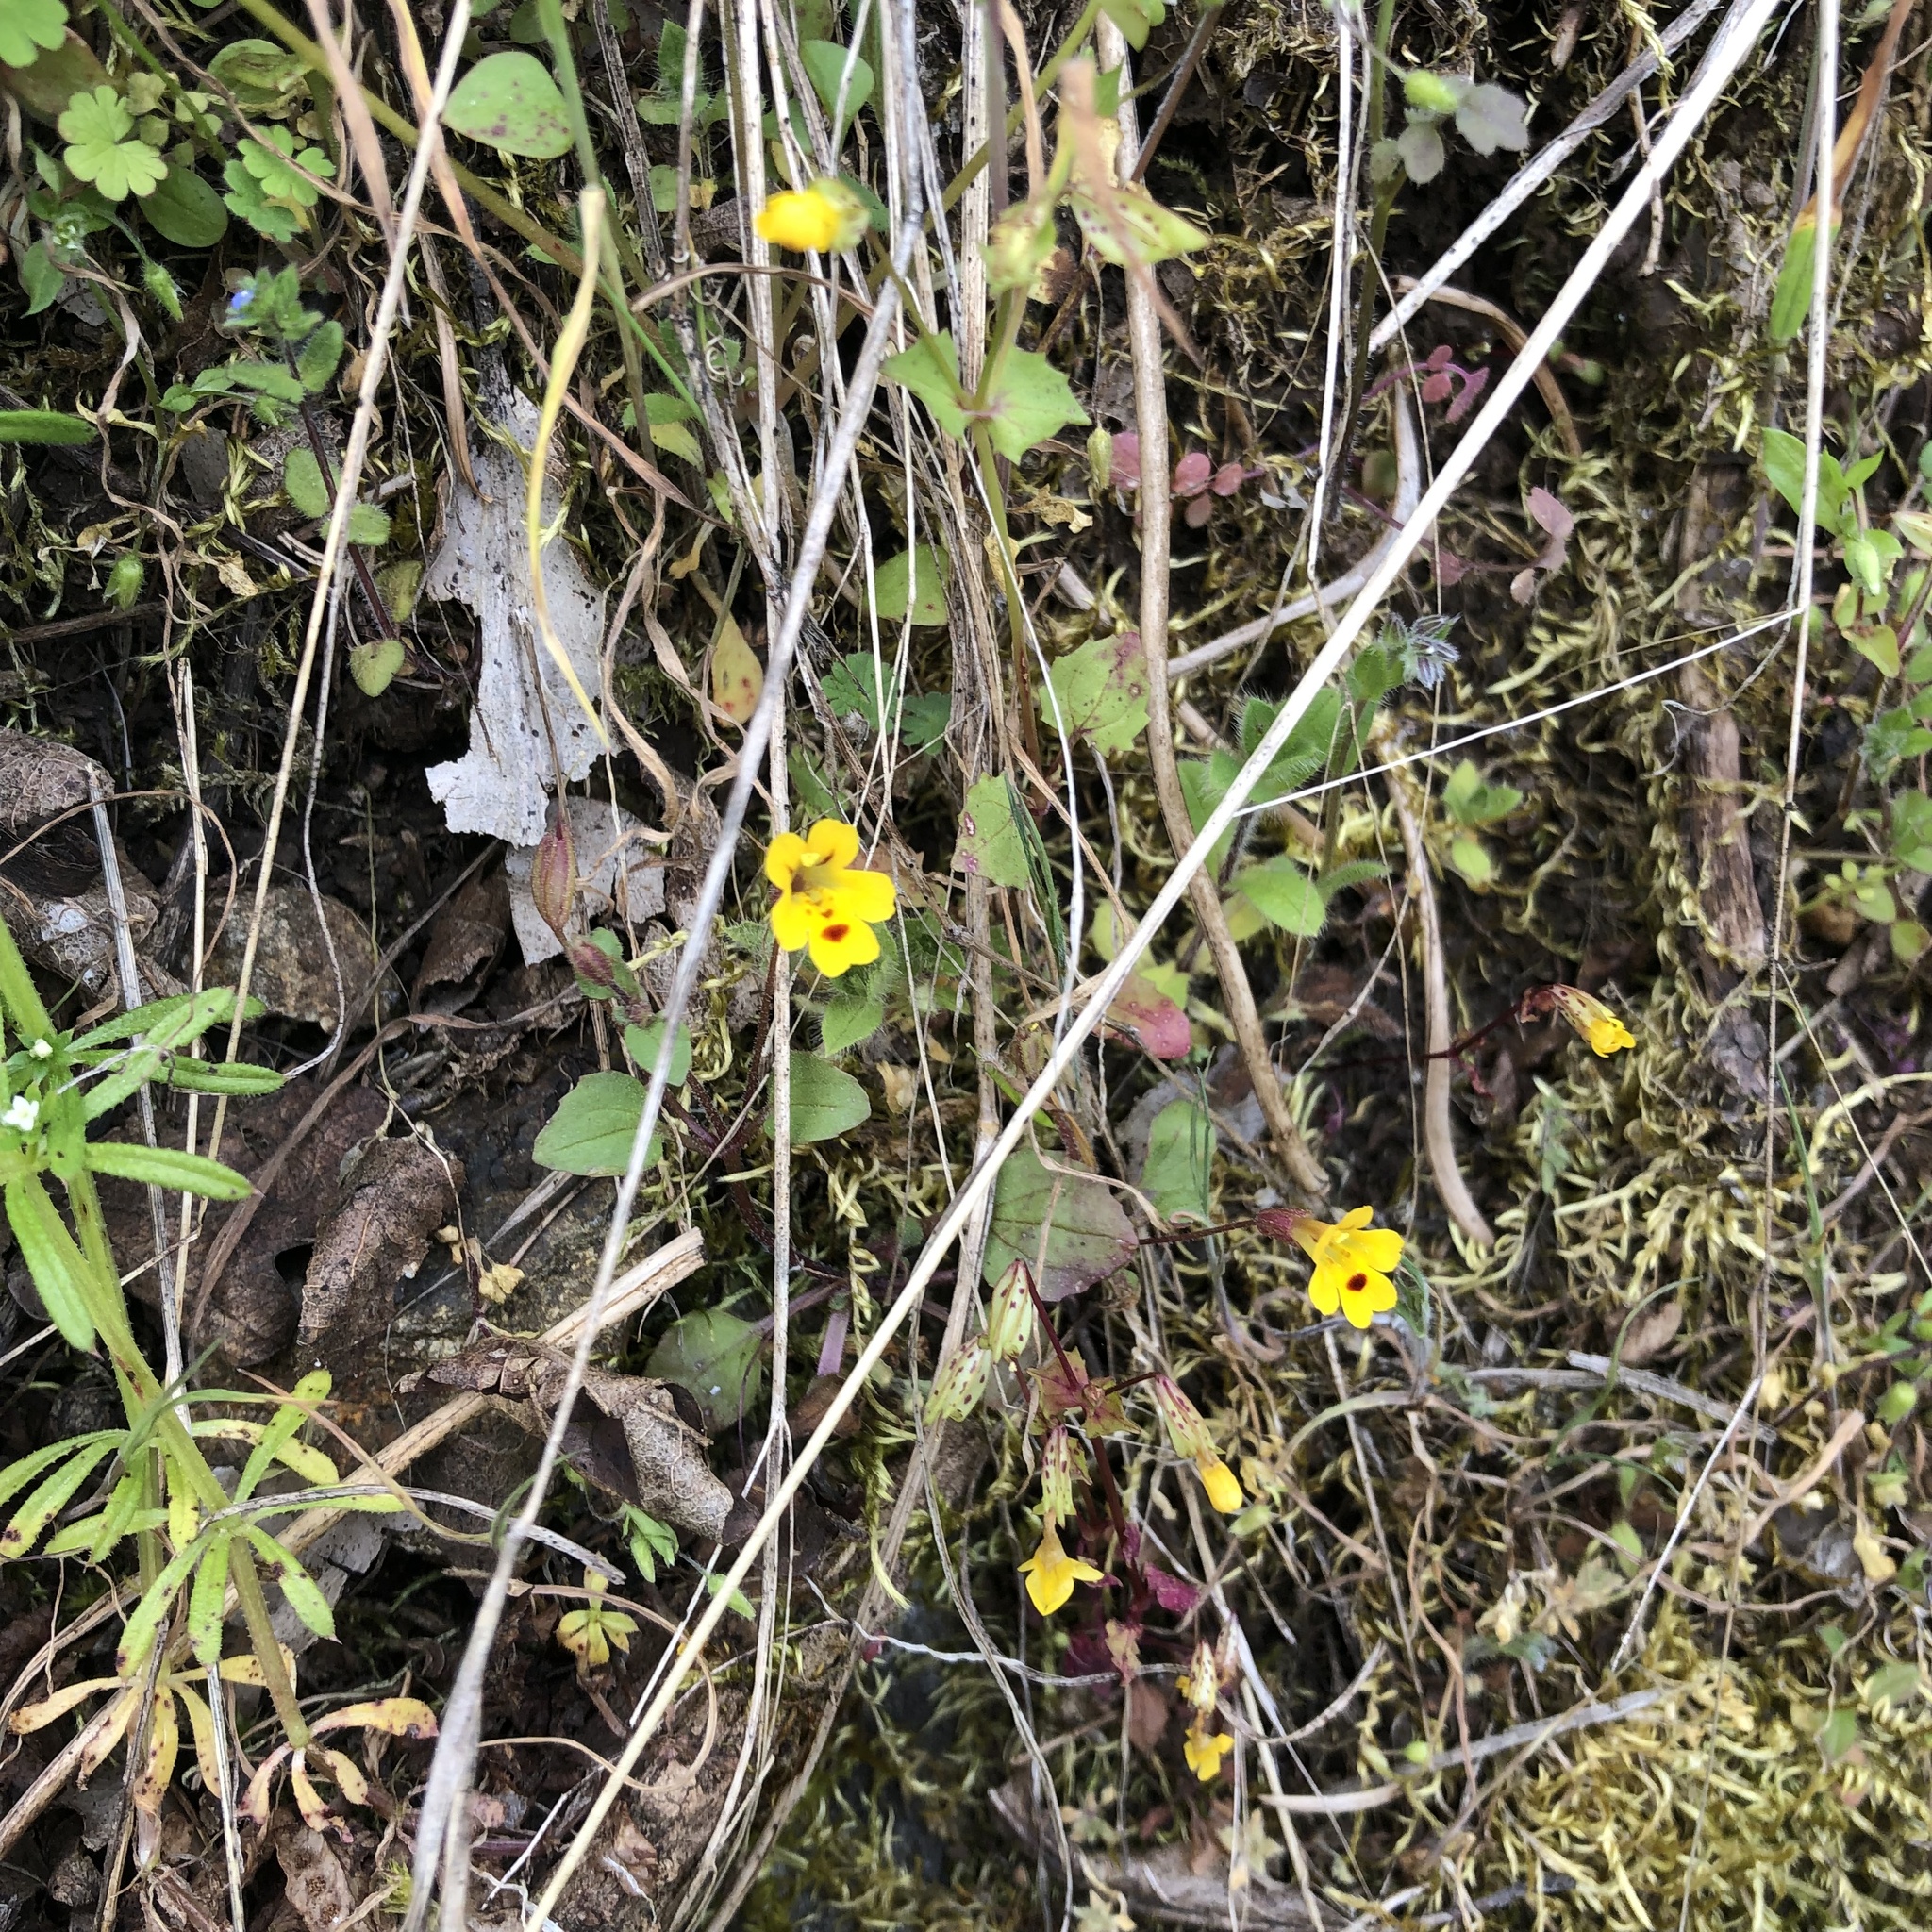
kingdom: Plantae
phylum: Tracheophyta
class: Magnoliopsida
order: Lamiales
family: Phrymaceae
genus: Erythranthe
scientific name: Erythranthe alsinoides
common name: Chickweed monkeyflower
